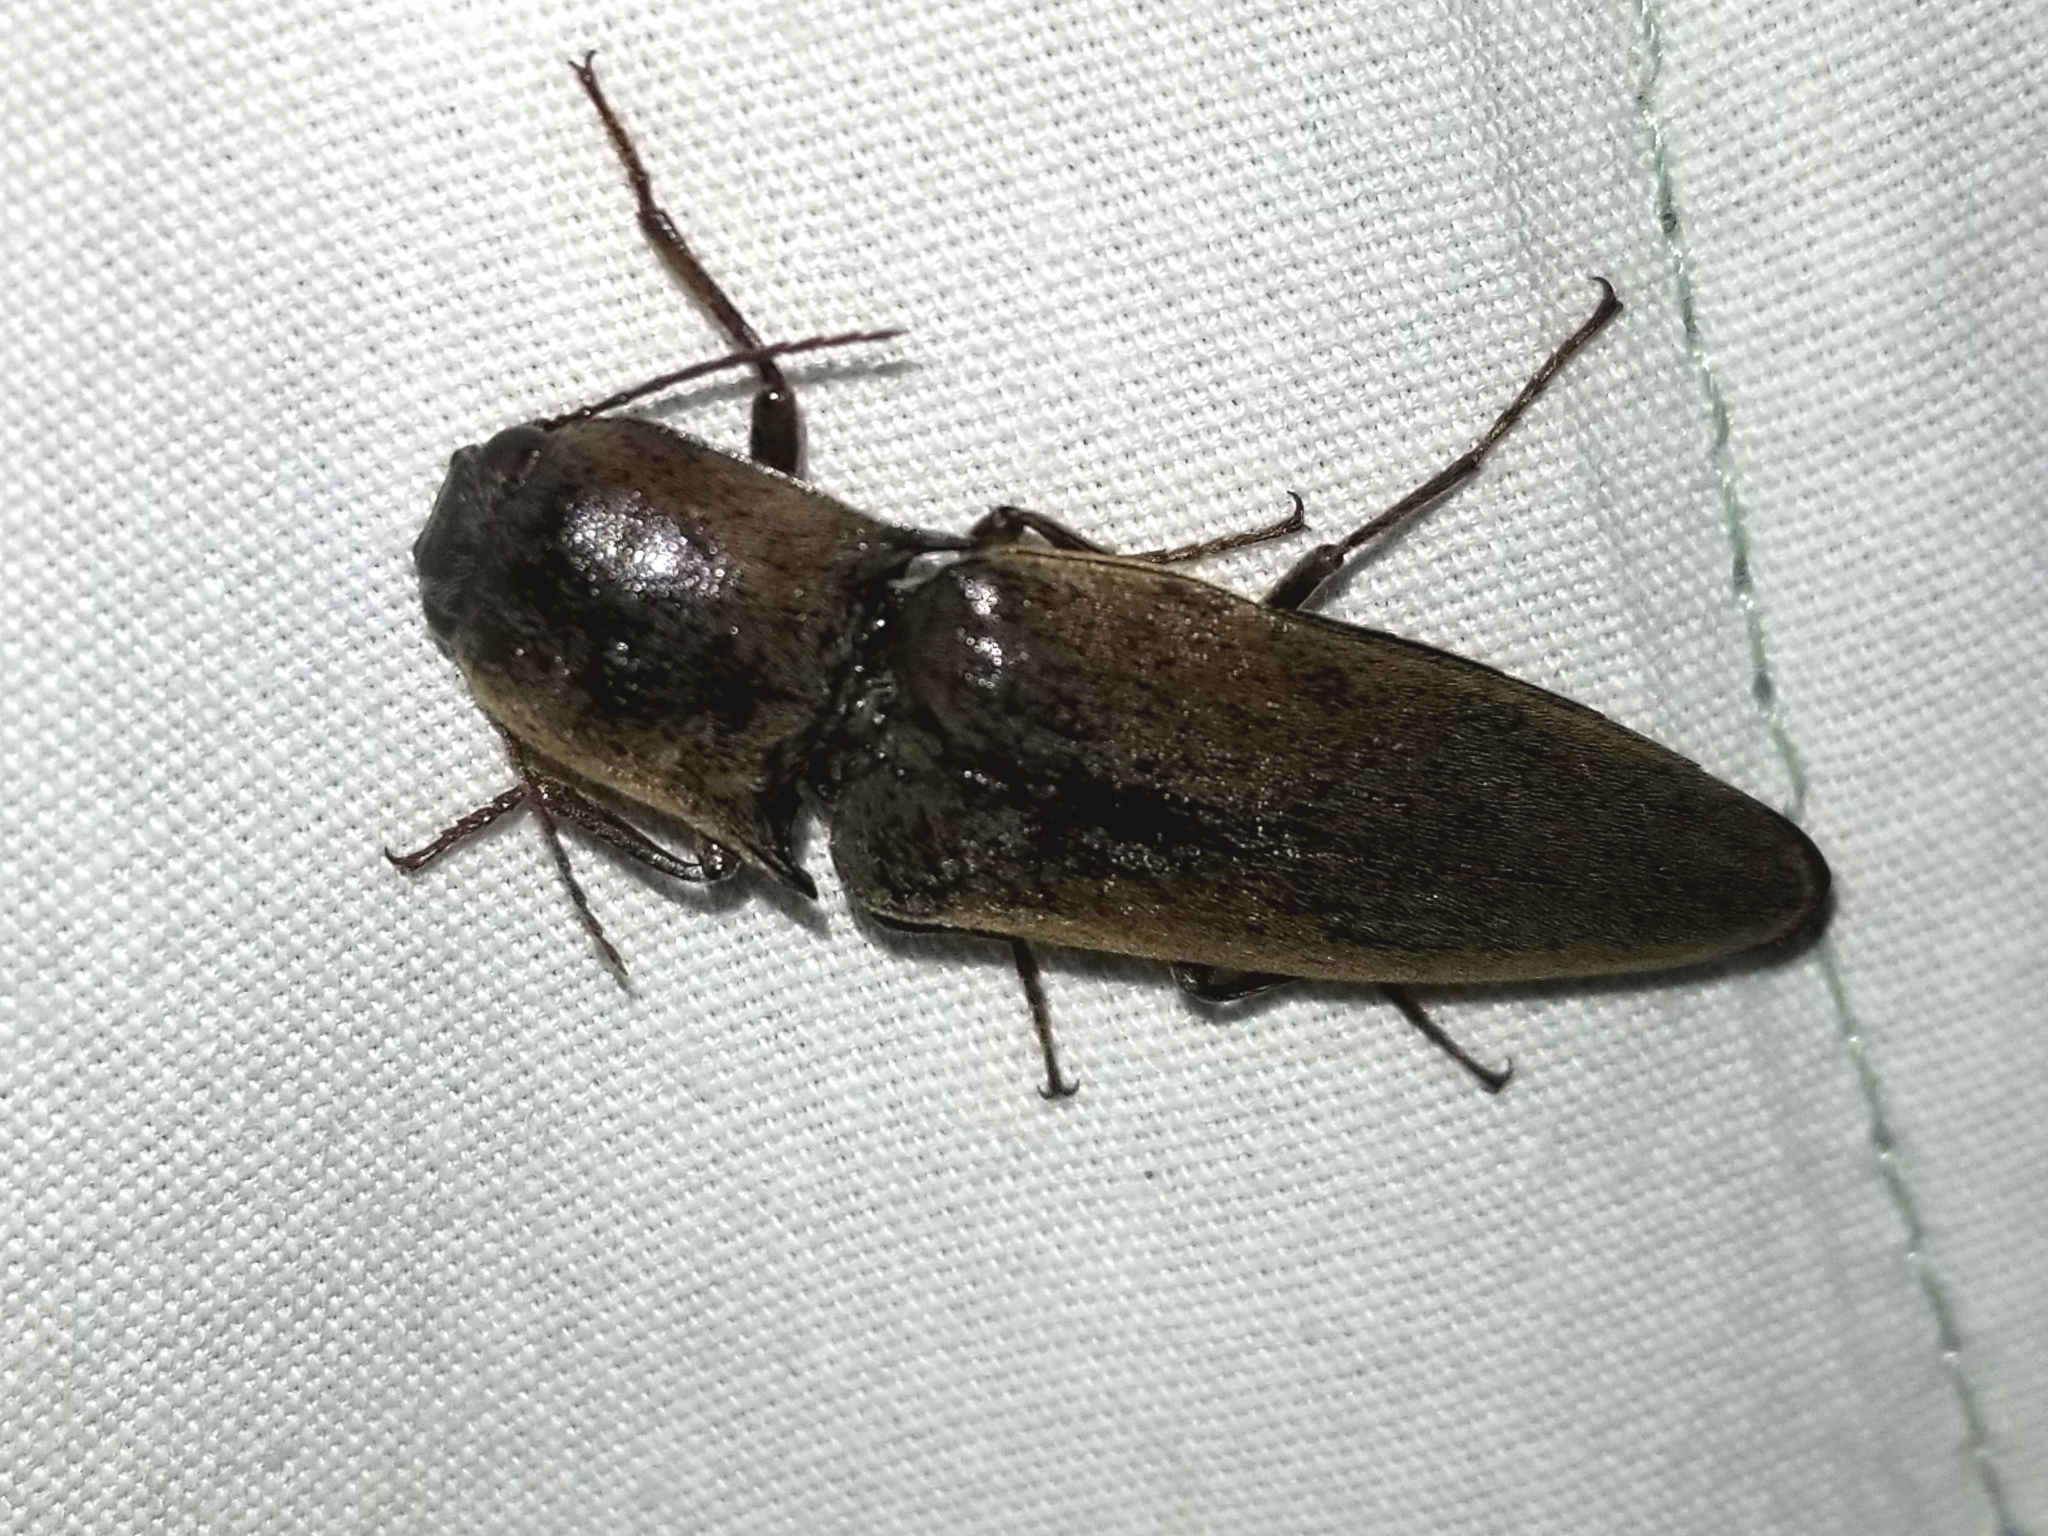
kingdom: Animalia
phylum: Arthropoda
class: Insecta
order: Coleoptera
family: Elateridae
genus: Orthostethus
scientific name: Orthostethus infuscatus
